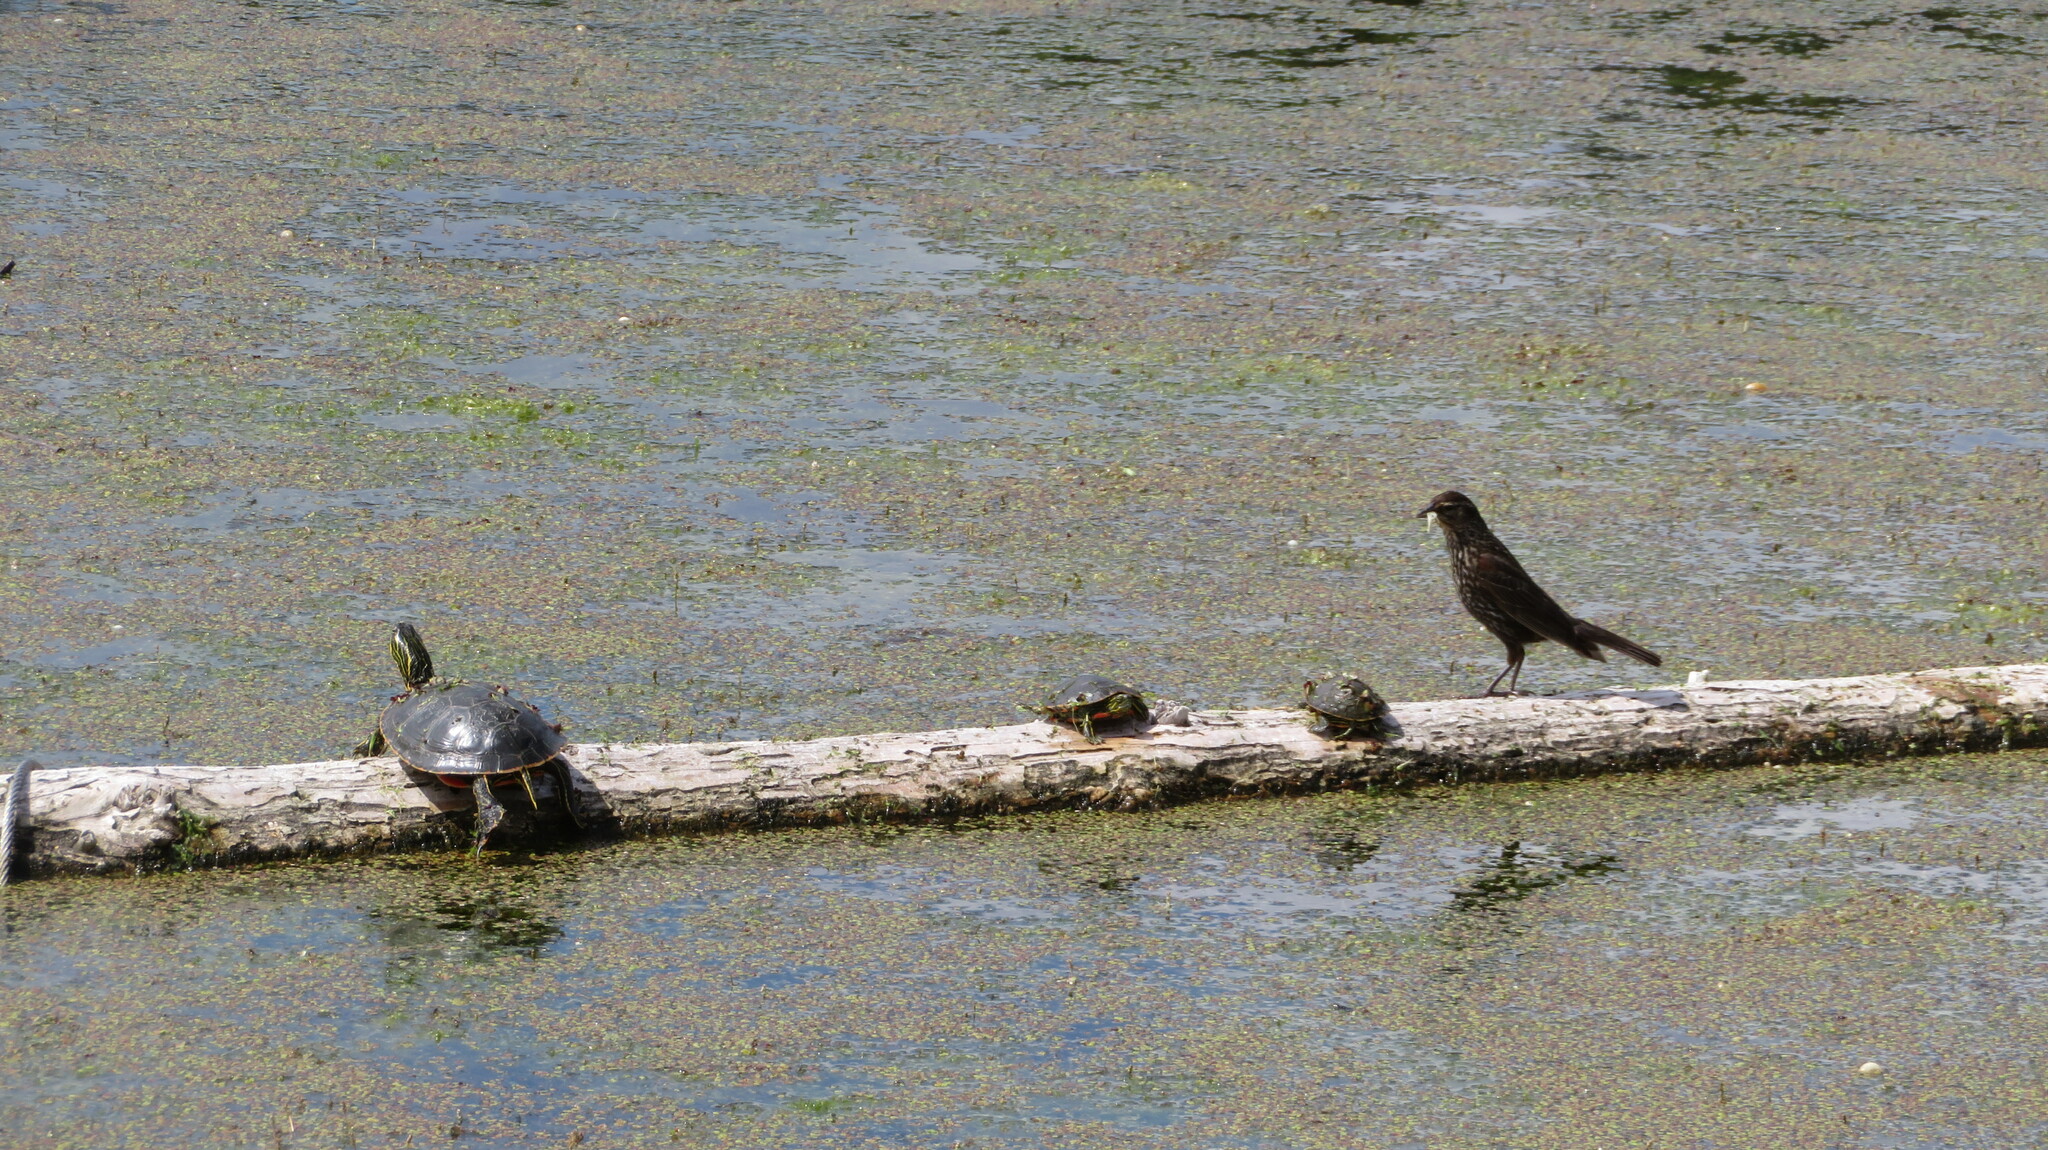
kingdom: Animalia
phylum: Chordata
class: Aves
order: Passeriformes
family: Icteridae
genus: Agelaius
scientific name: Agelaius phoeniceus
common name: Red-winged blackbird
